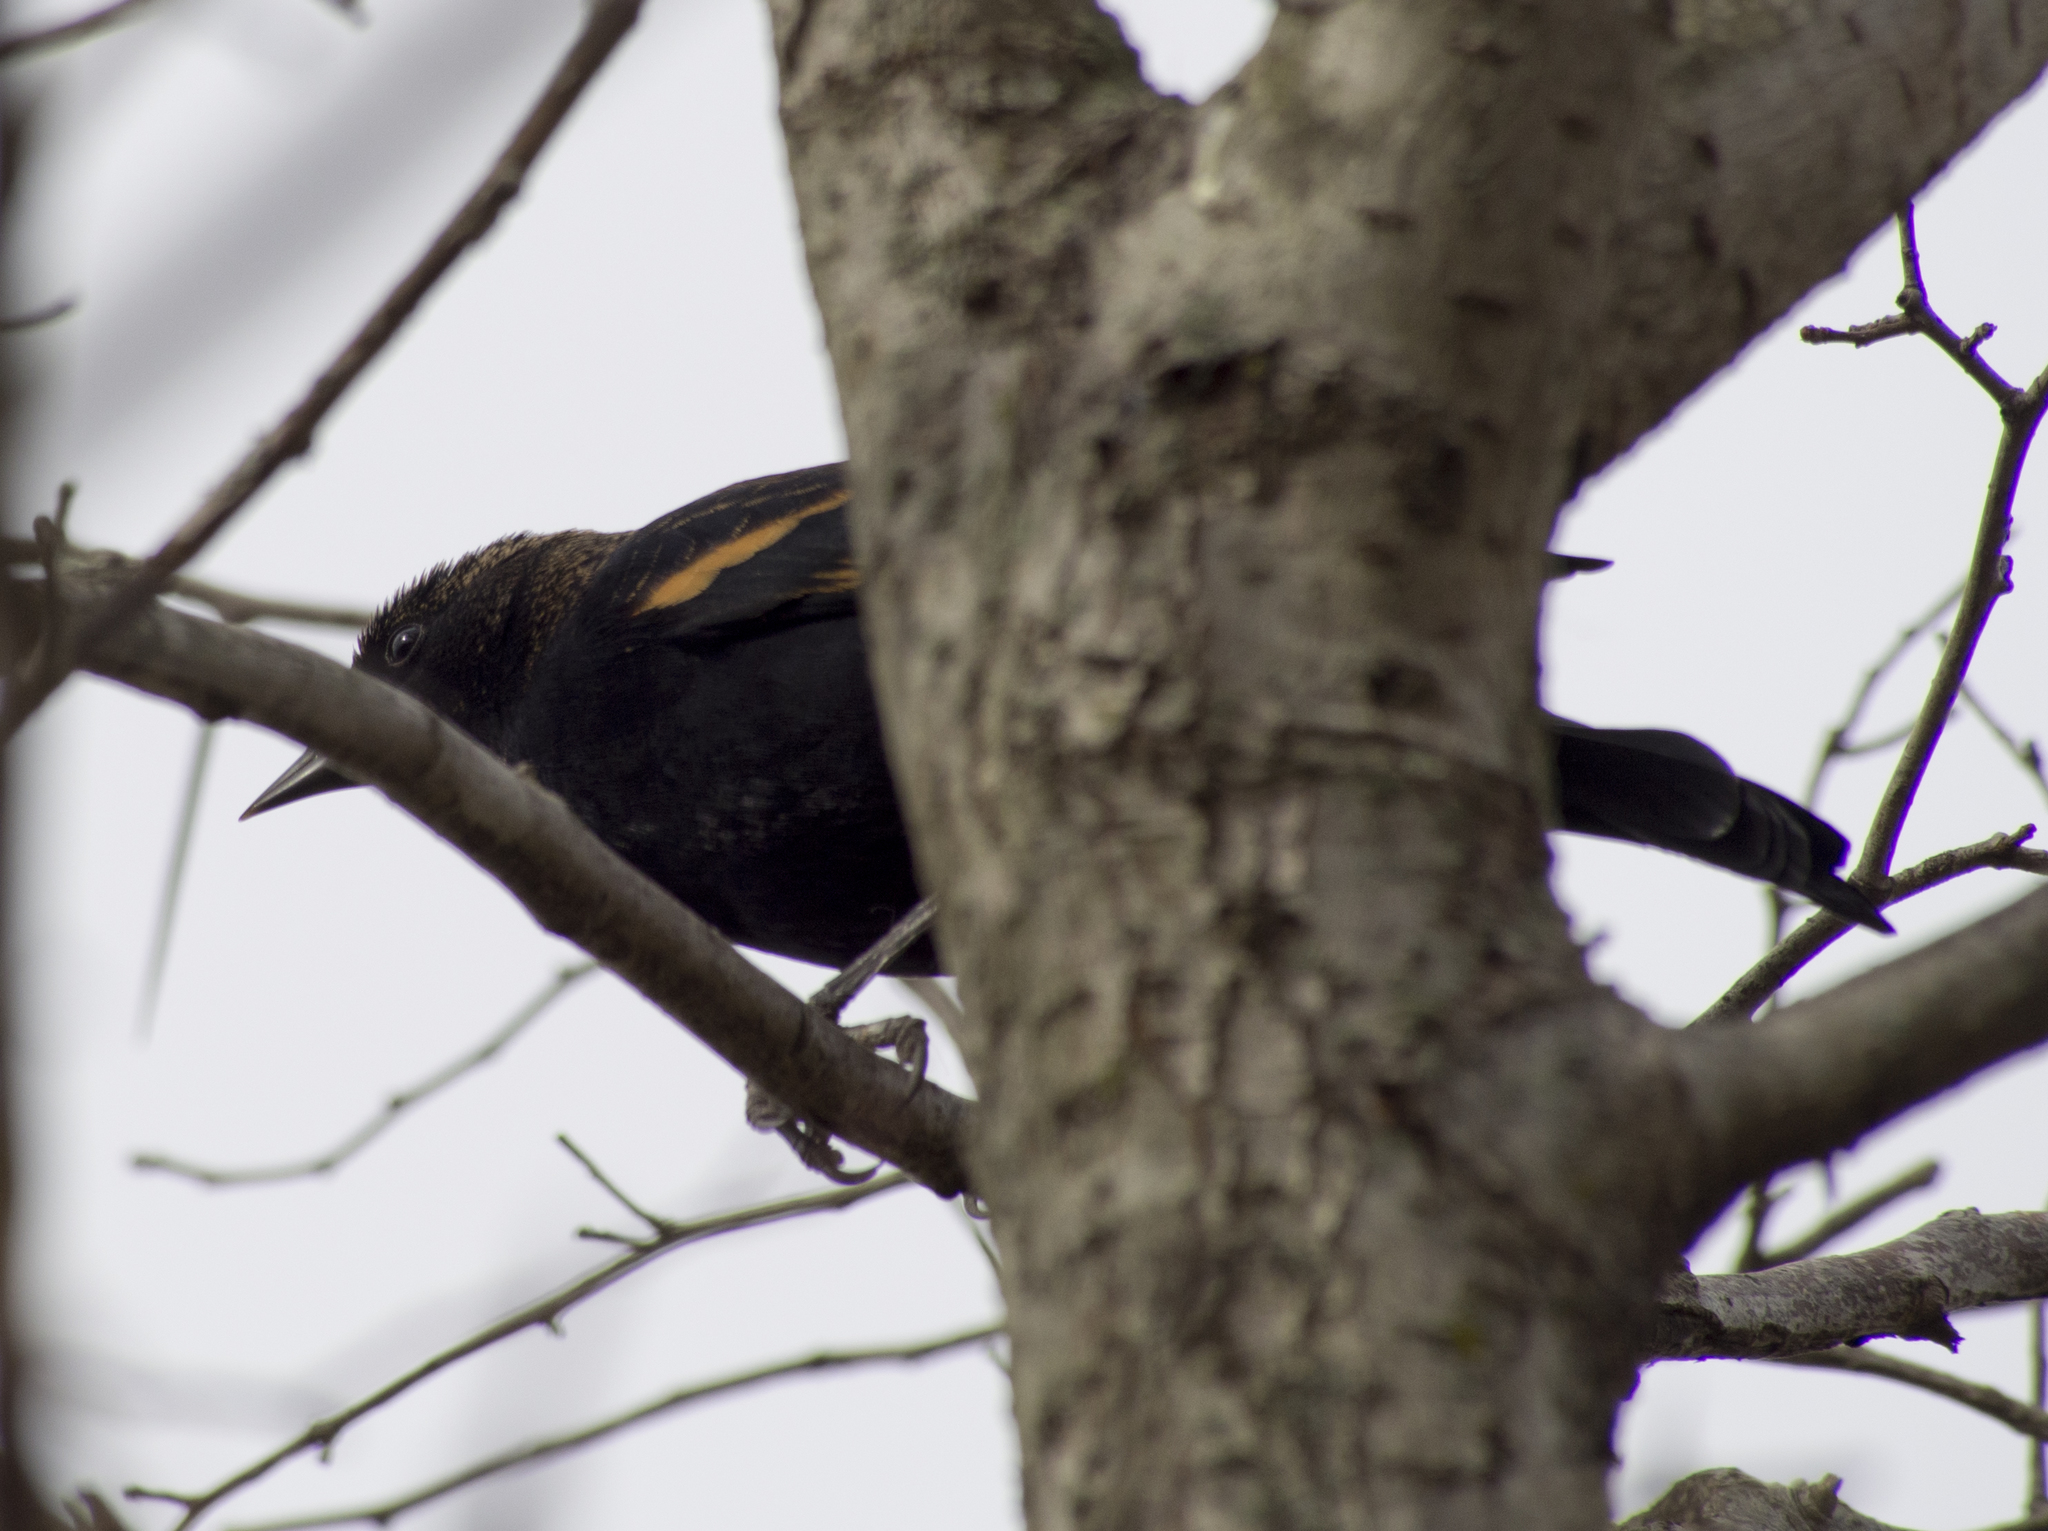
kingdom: Animalia
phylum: Chordata
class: Aves
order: Passeriformes
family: Icteridae
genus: Agelaius
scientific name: Agelaius phoeniceus
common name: Red-winged blackbird
